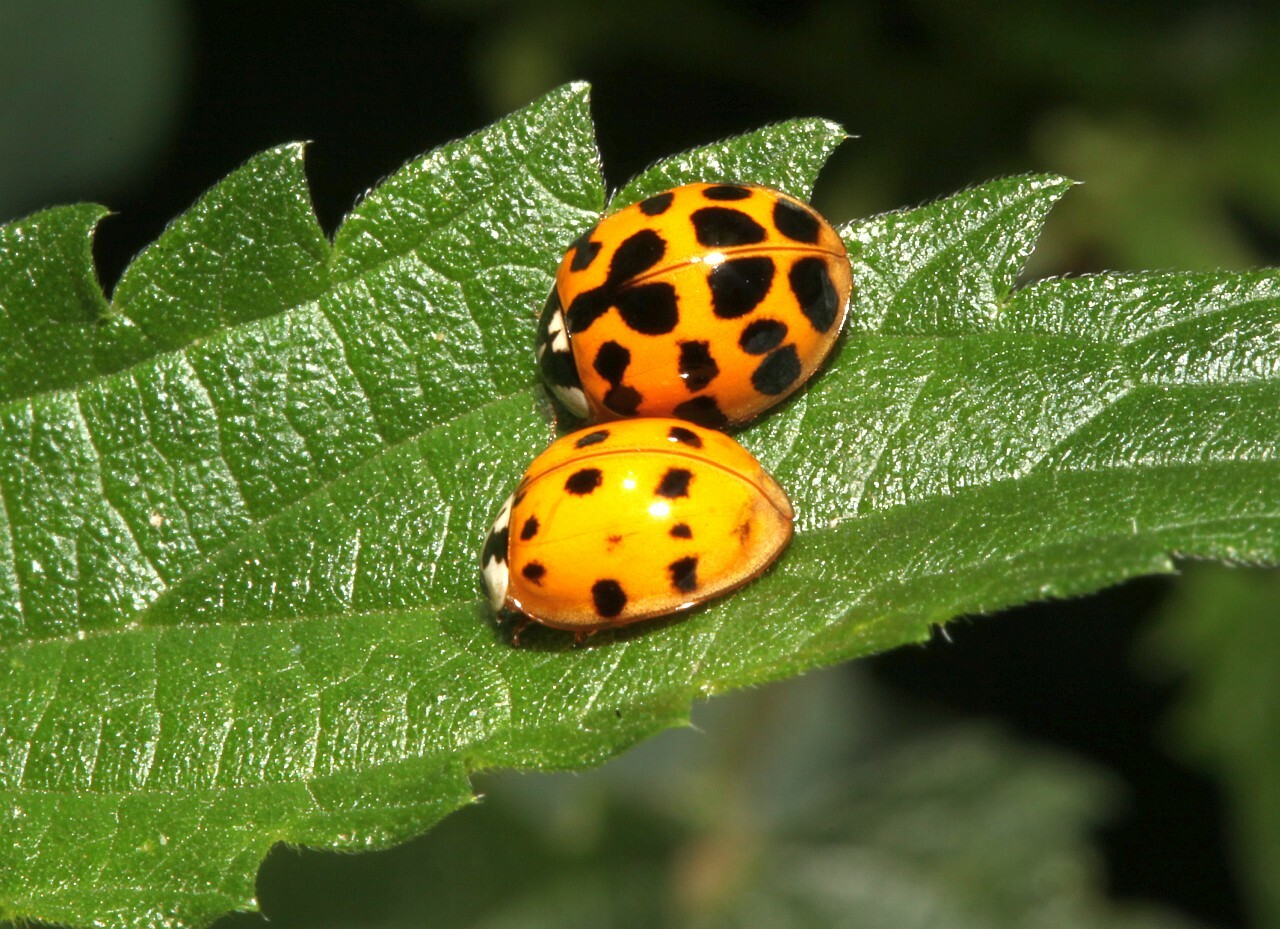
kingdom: Animalia
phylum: Arthropoda
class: Insecta
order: Coleoptera
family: Coccinellidae
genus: Harmonia
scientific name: Harmonia axyridis
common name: Harlequin ladybird
